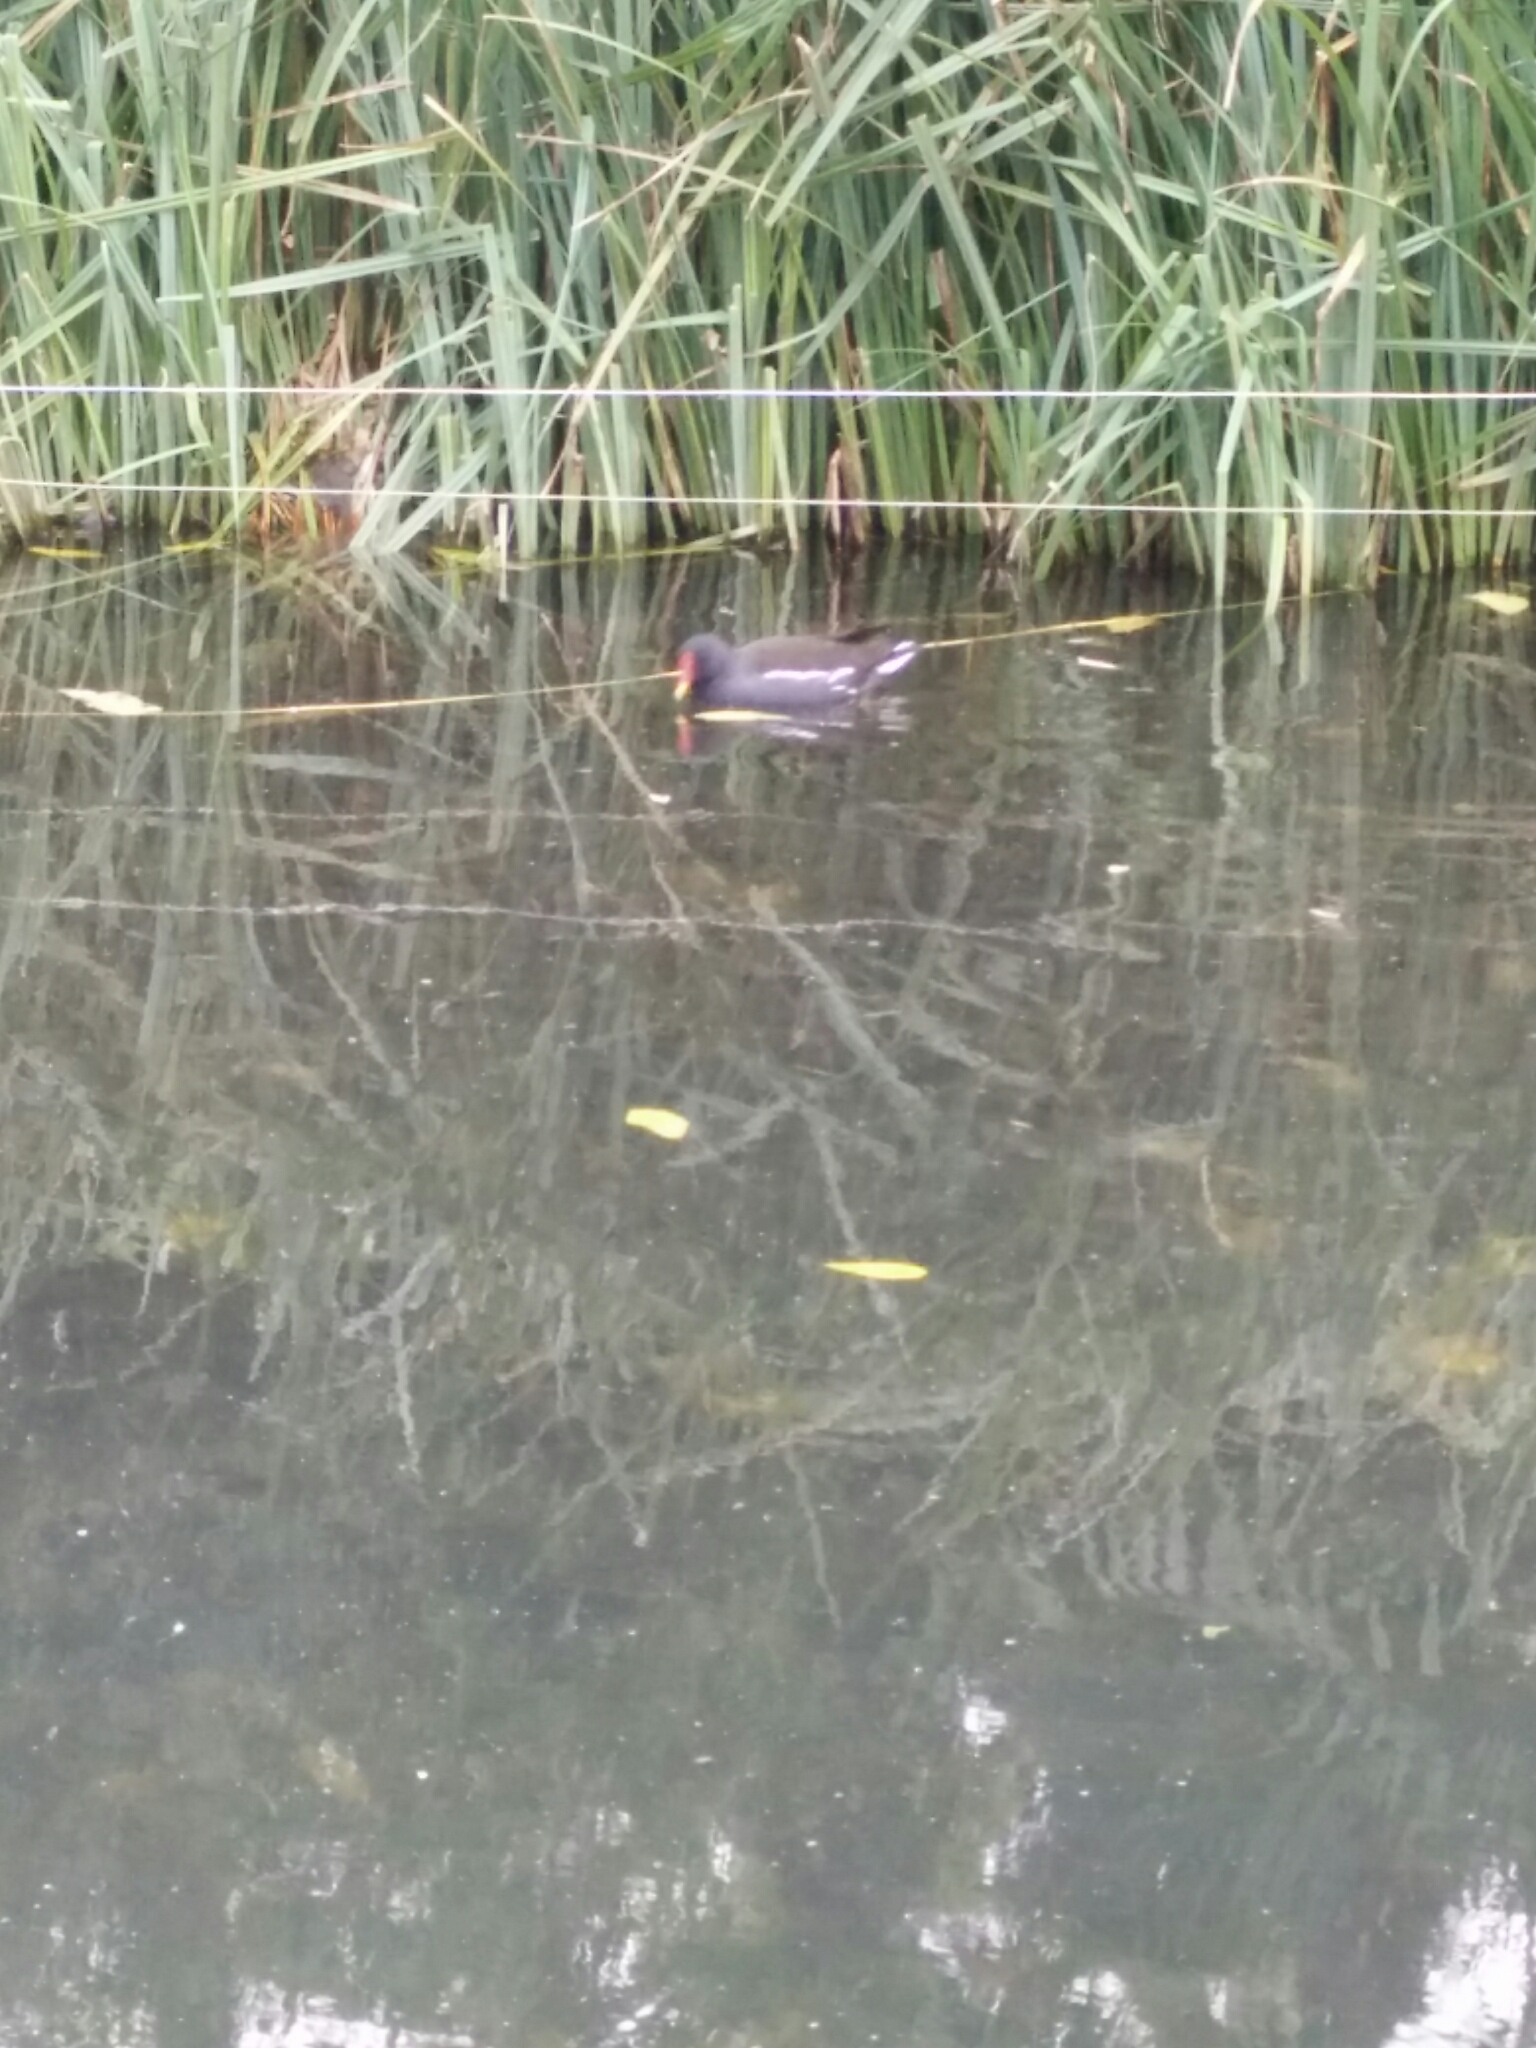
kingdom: Animalia
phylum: Chordata
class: Aves
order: Gruiformes
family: Rallidae
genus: Gallinula
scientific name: Gallinula chloropus
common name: Common moorhen
